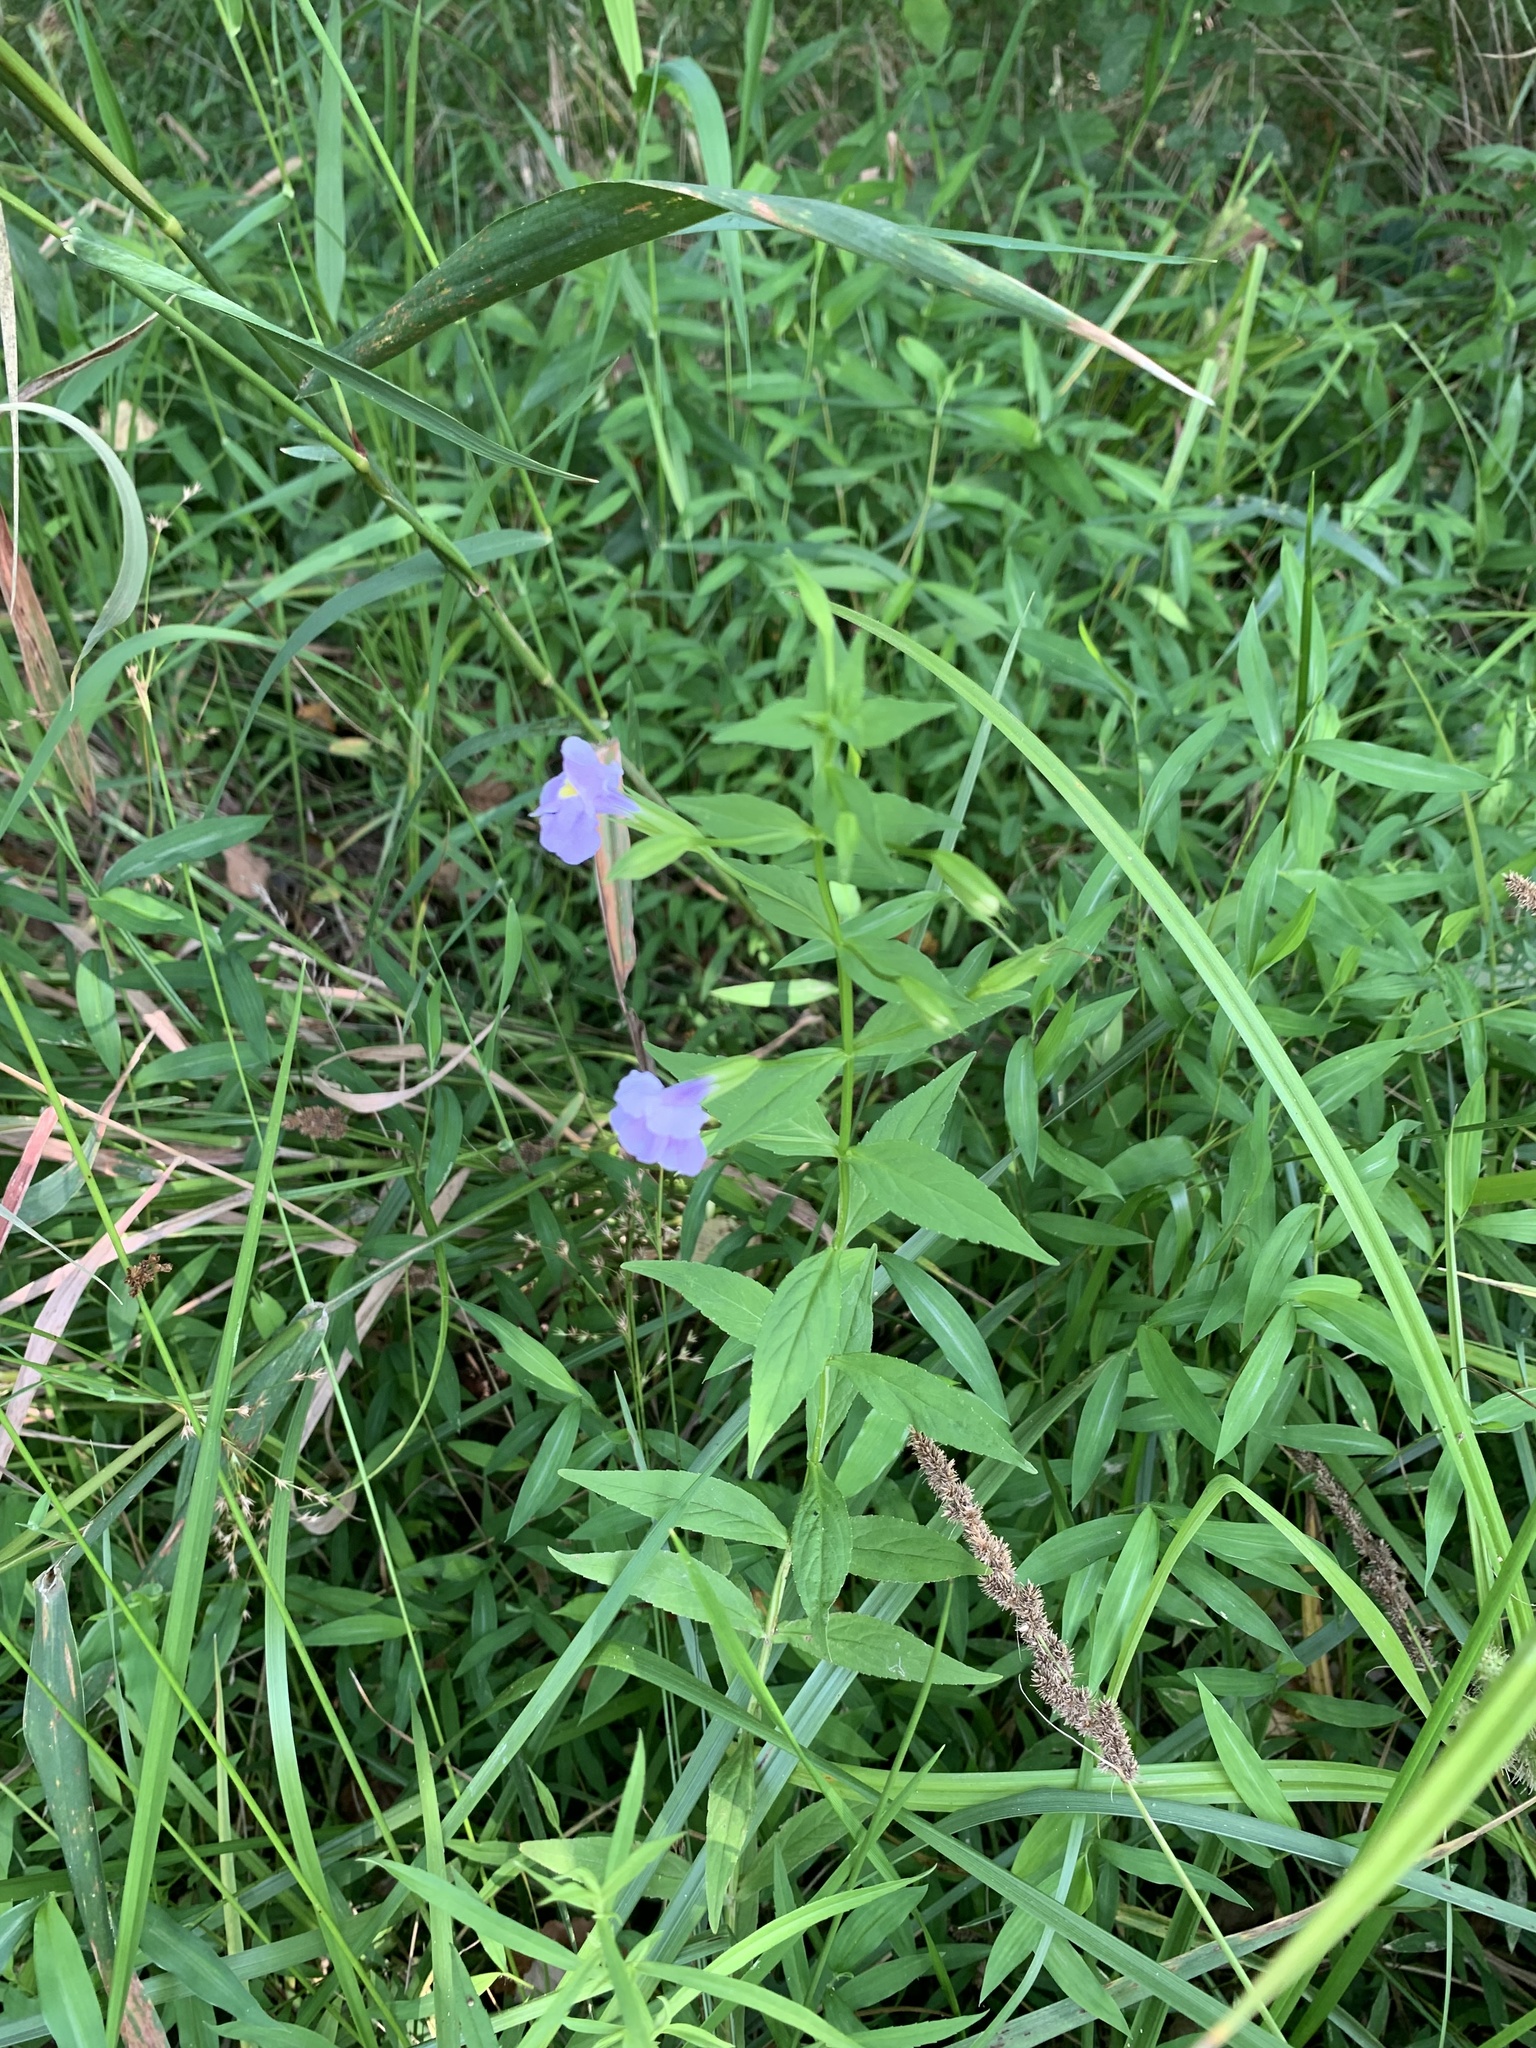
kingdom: Plantae
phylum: Tracheophyta
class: Magnoliopsida
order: Lamiales
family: Phrymaceae
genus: Mimulus
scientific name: Mimulus ringens
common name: Allegheny monkeyflower
